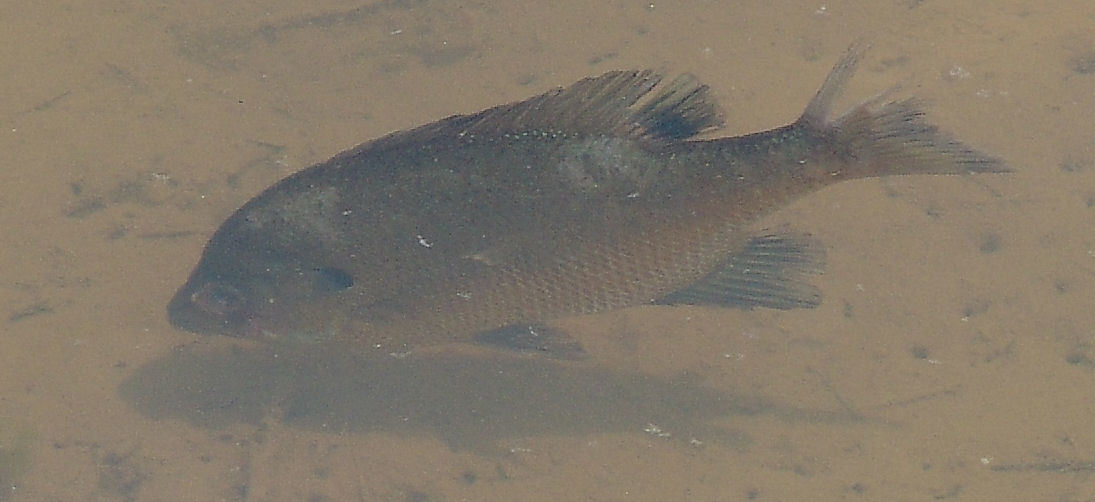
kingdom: Animalia
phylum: Chordata
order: Perciformes
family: Centrarchidae
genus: Lepomis
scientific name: Lepomis macrochirus
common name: Bluegill
